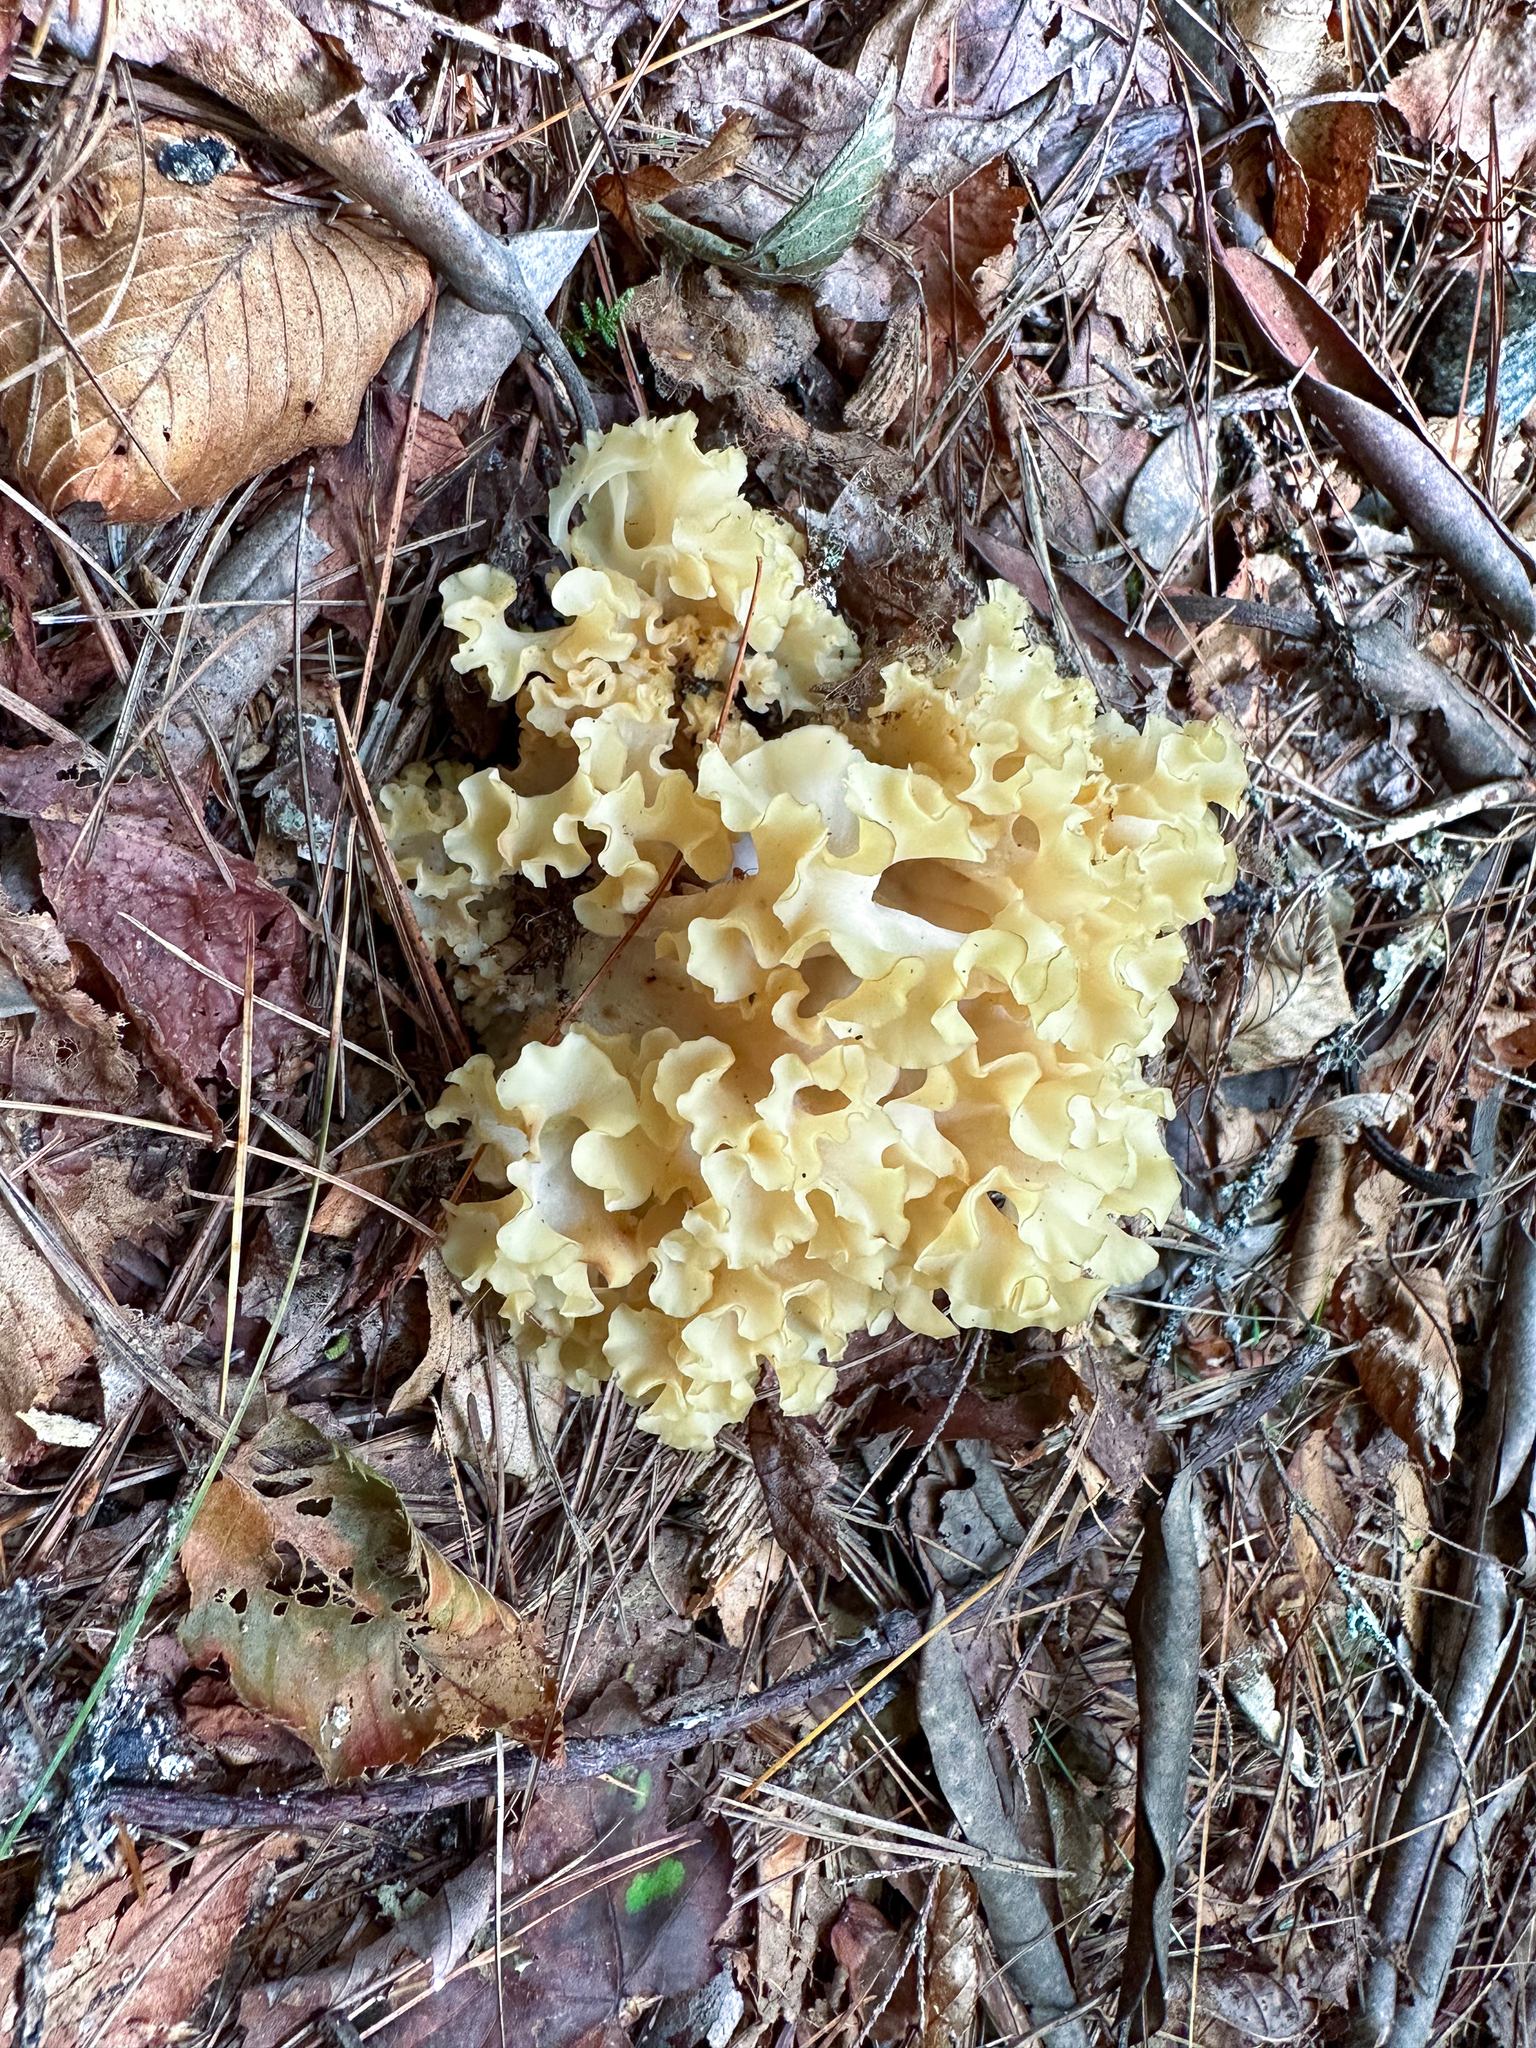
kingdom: Fungi
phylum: Basidiomycota
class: Agaricomycetes
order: Polyporales
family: Sparassidaceae
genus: Sparassis
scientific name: Sparassis americana
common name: American cauliflower mushroom
